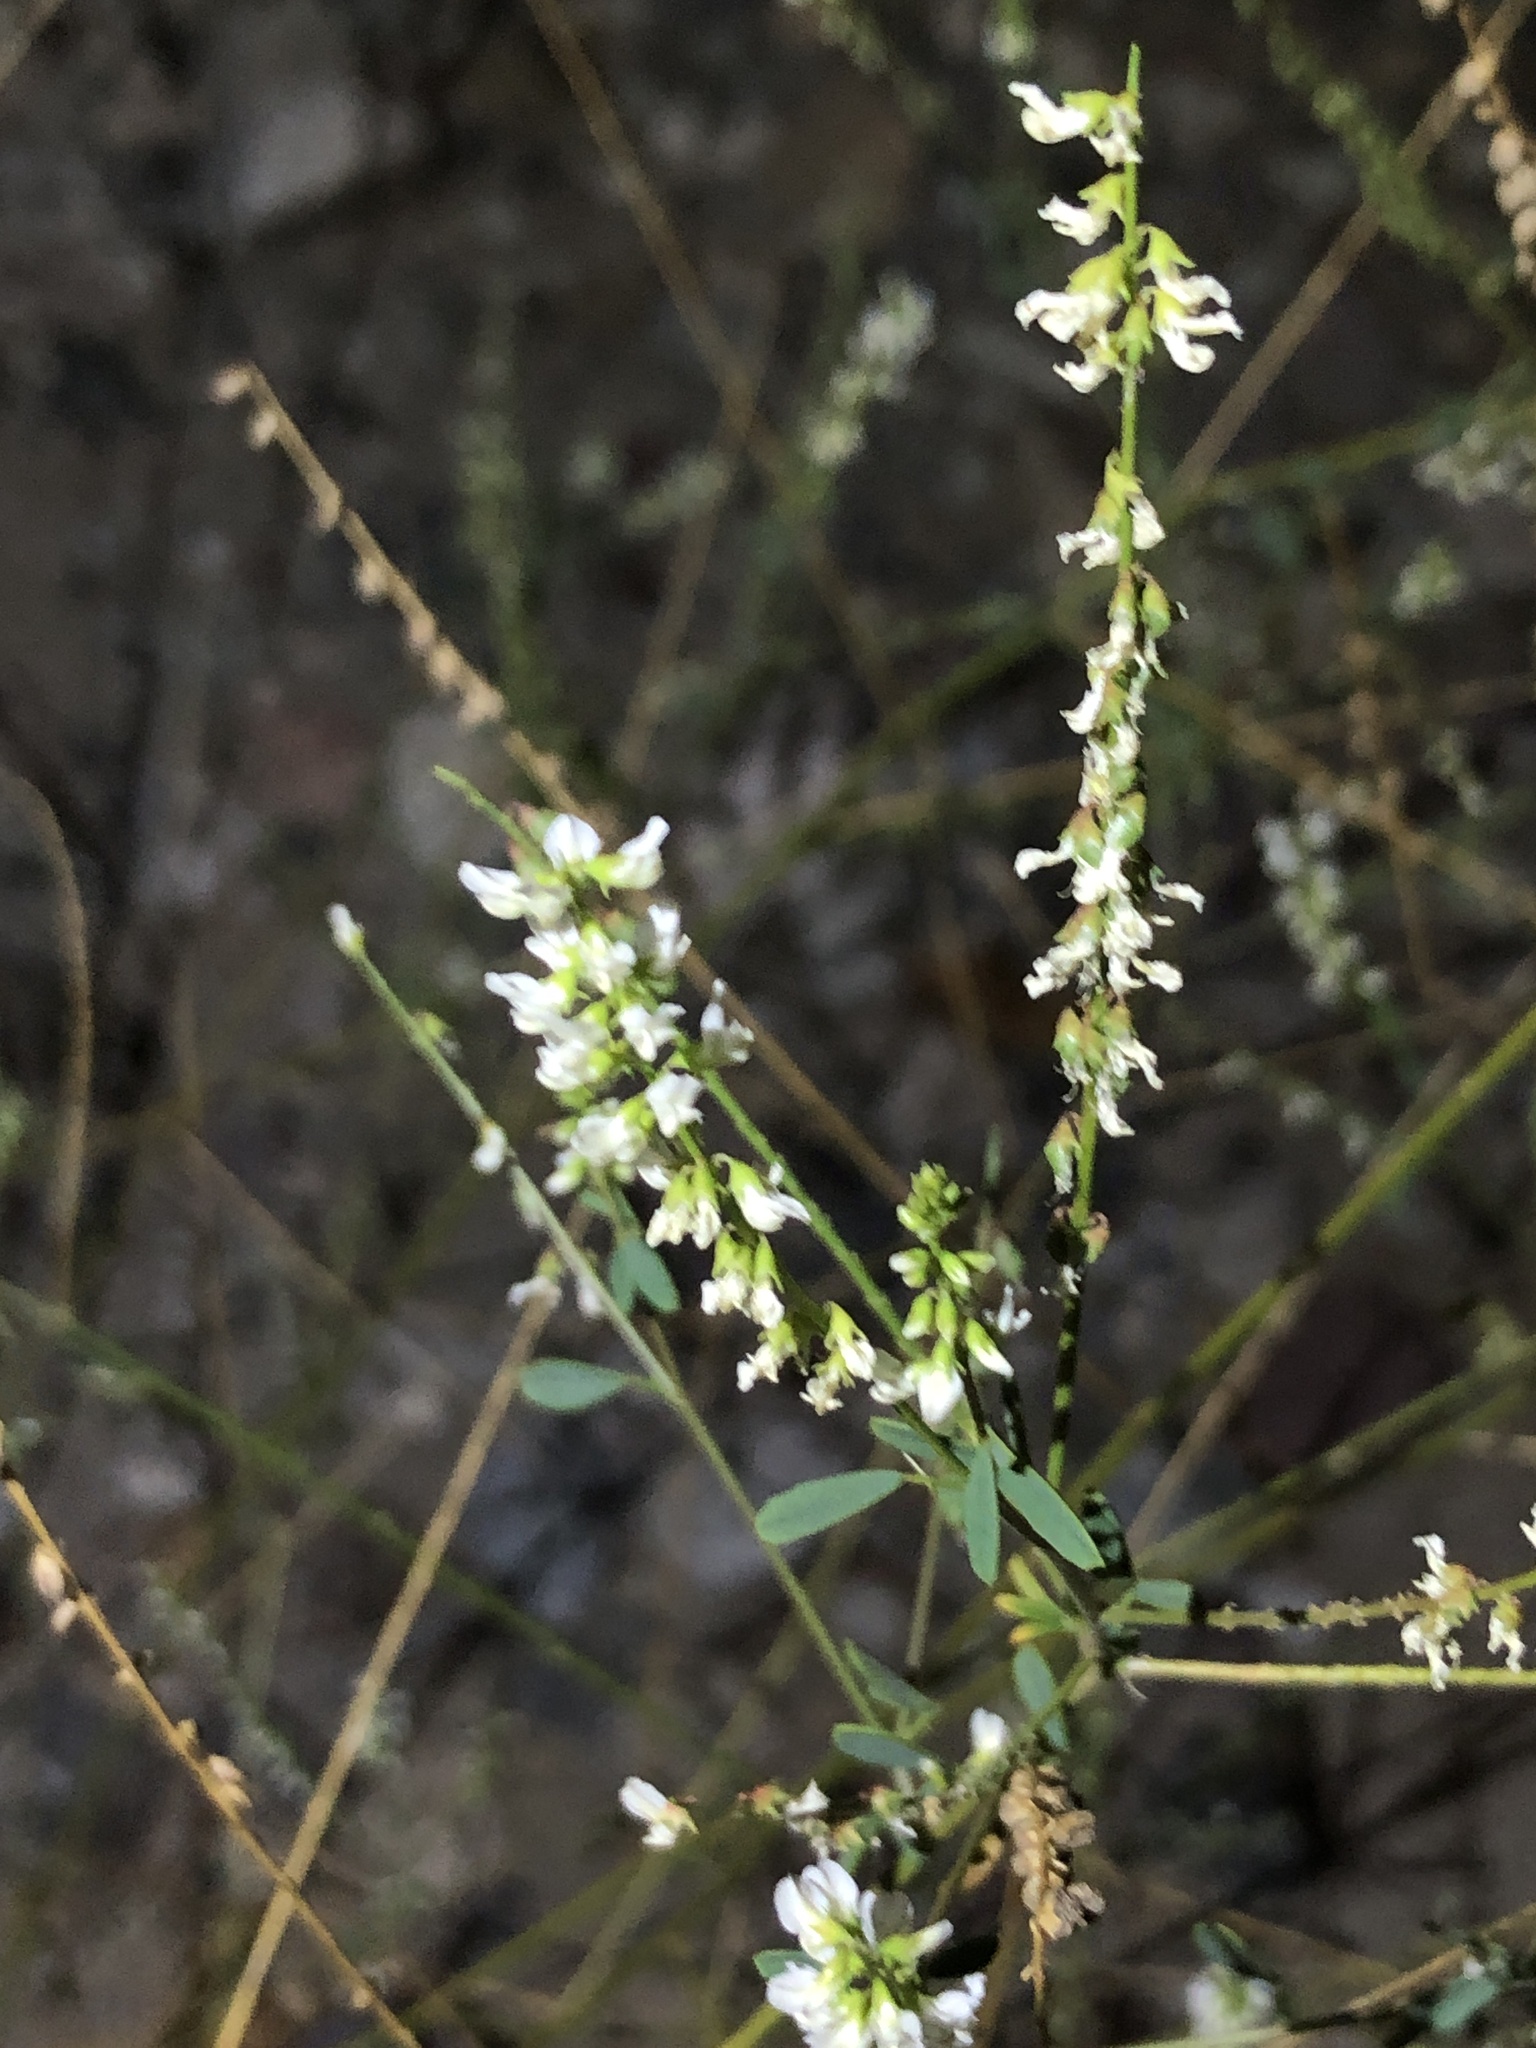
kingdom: Plantae
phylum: Tracheophyta
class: Magnoliopsida
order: Fabales
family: Fabaceae
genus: Melilotus
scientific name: Melilotus albus
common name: White melilot
